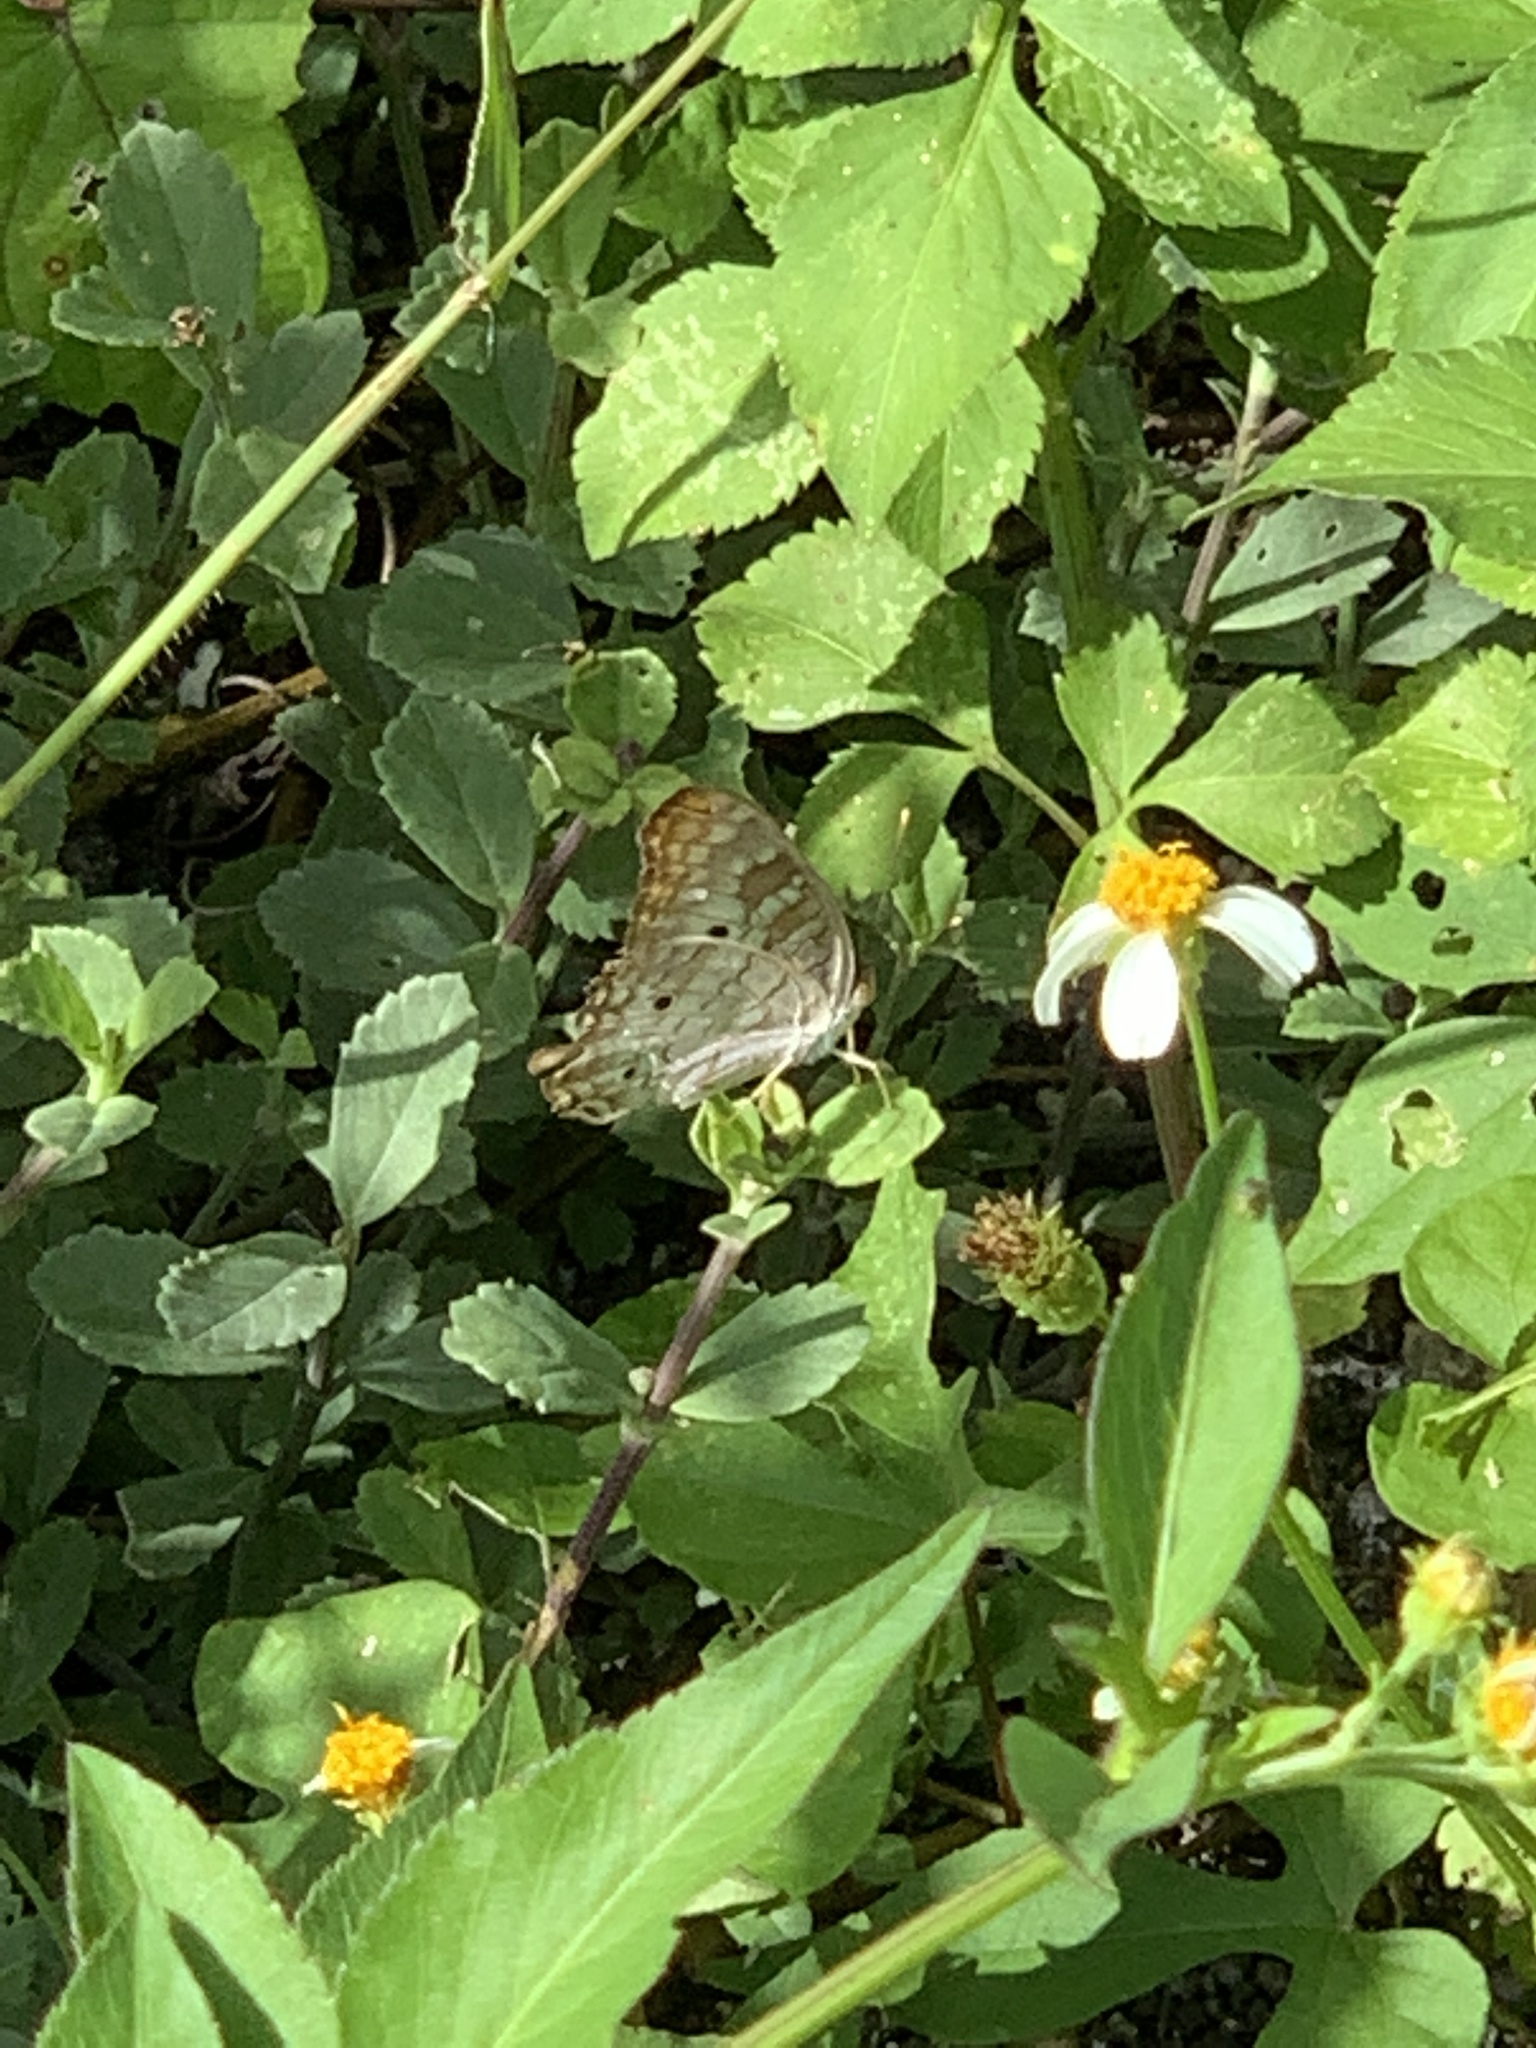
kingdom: Animalia
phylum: Arthropoda
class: Insecta
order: Lepidoptera
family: Nymphalidae
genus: Anartia
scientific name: Anartia jatrophae
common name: White peacock
